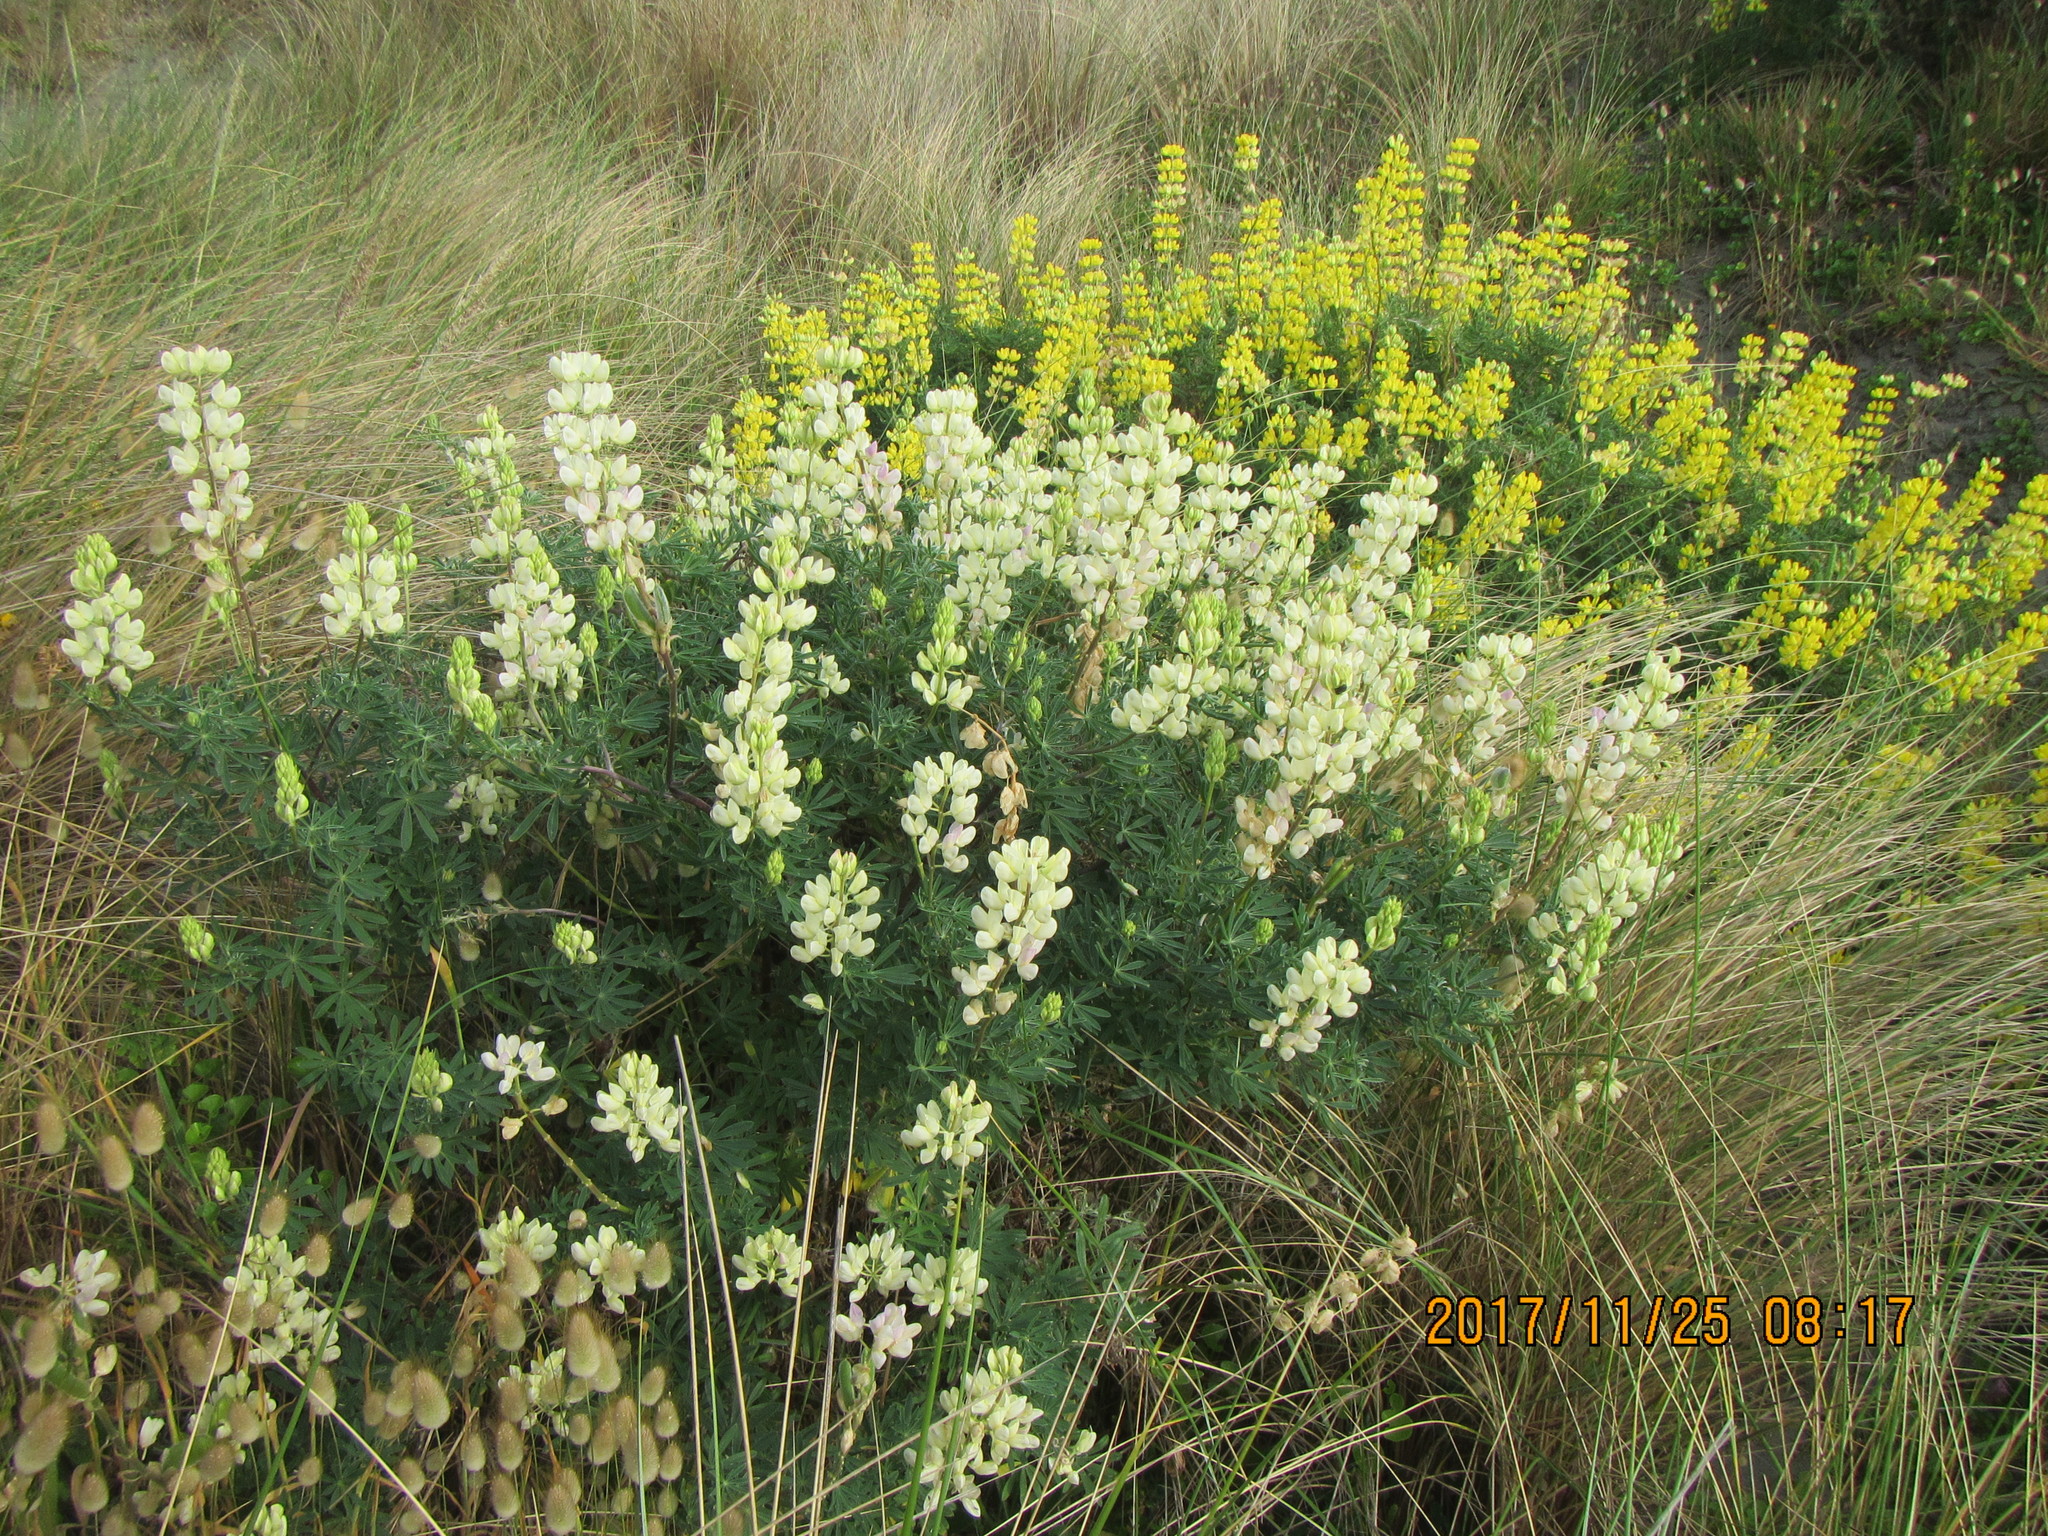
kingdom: Plantae
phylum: Tracheophyta
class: Magnoliopsida
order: Fabales
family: Fabaceae
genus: Lupinus
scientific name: Lupinus arboreus
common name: Yellow bush lupine
